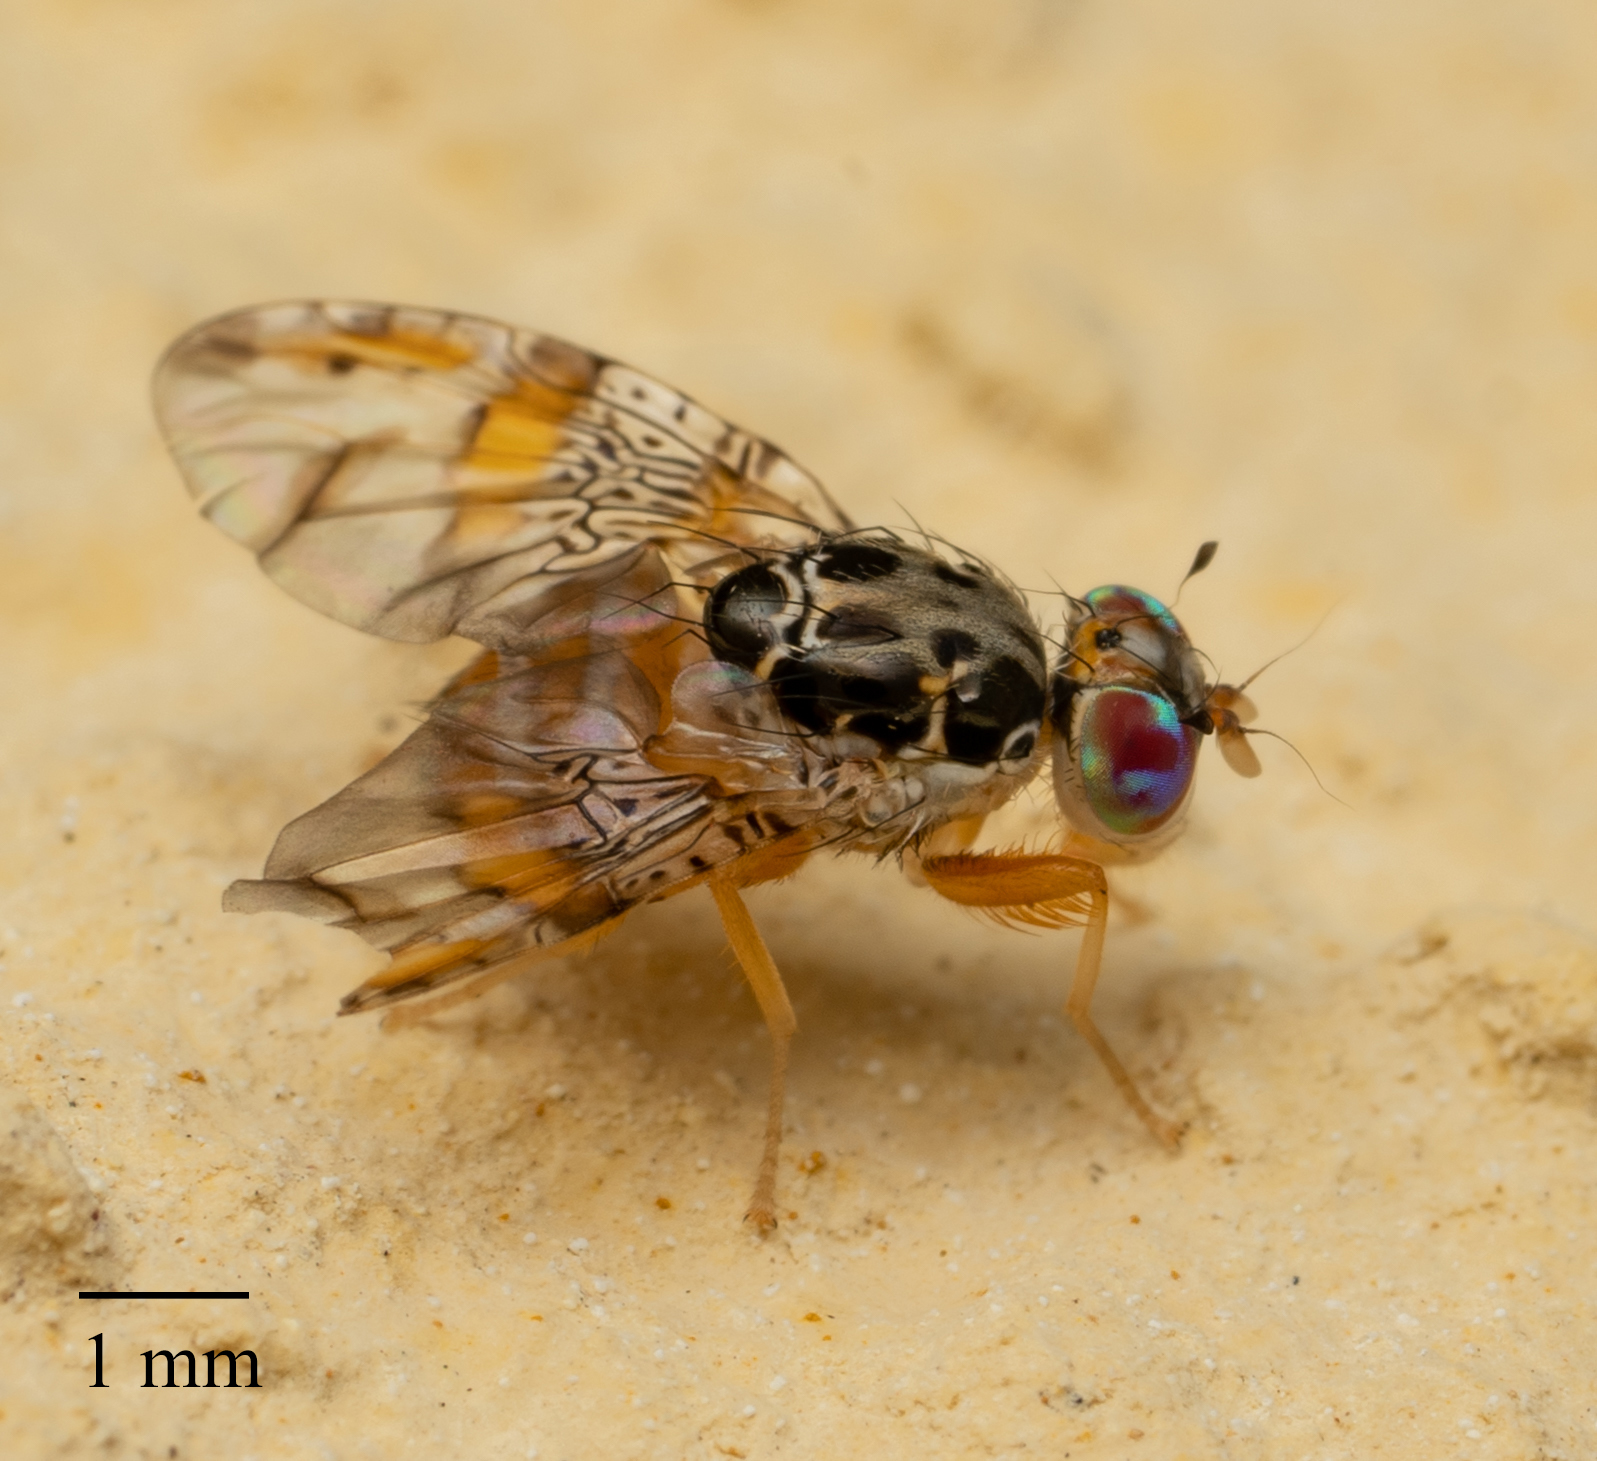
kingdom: Animalia
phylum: Arthropoda
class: Insecta
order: Diptera
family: Tephritidae
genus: Ceratitis
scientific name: Ceratitis capitata
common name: Mediterranean fruit fly
